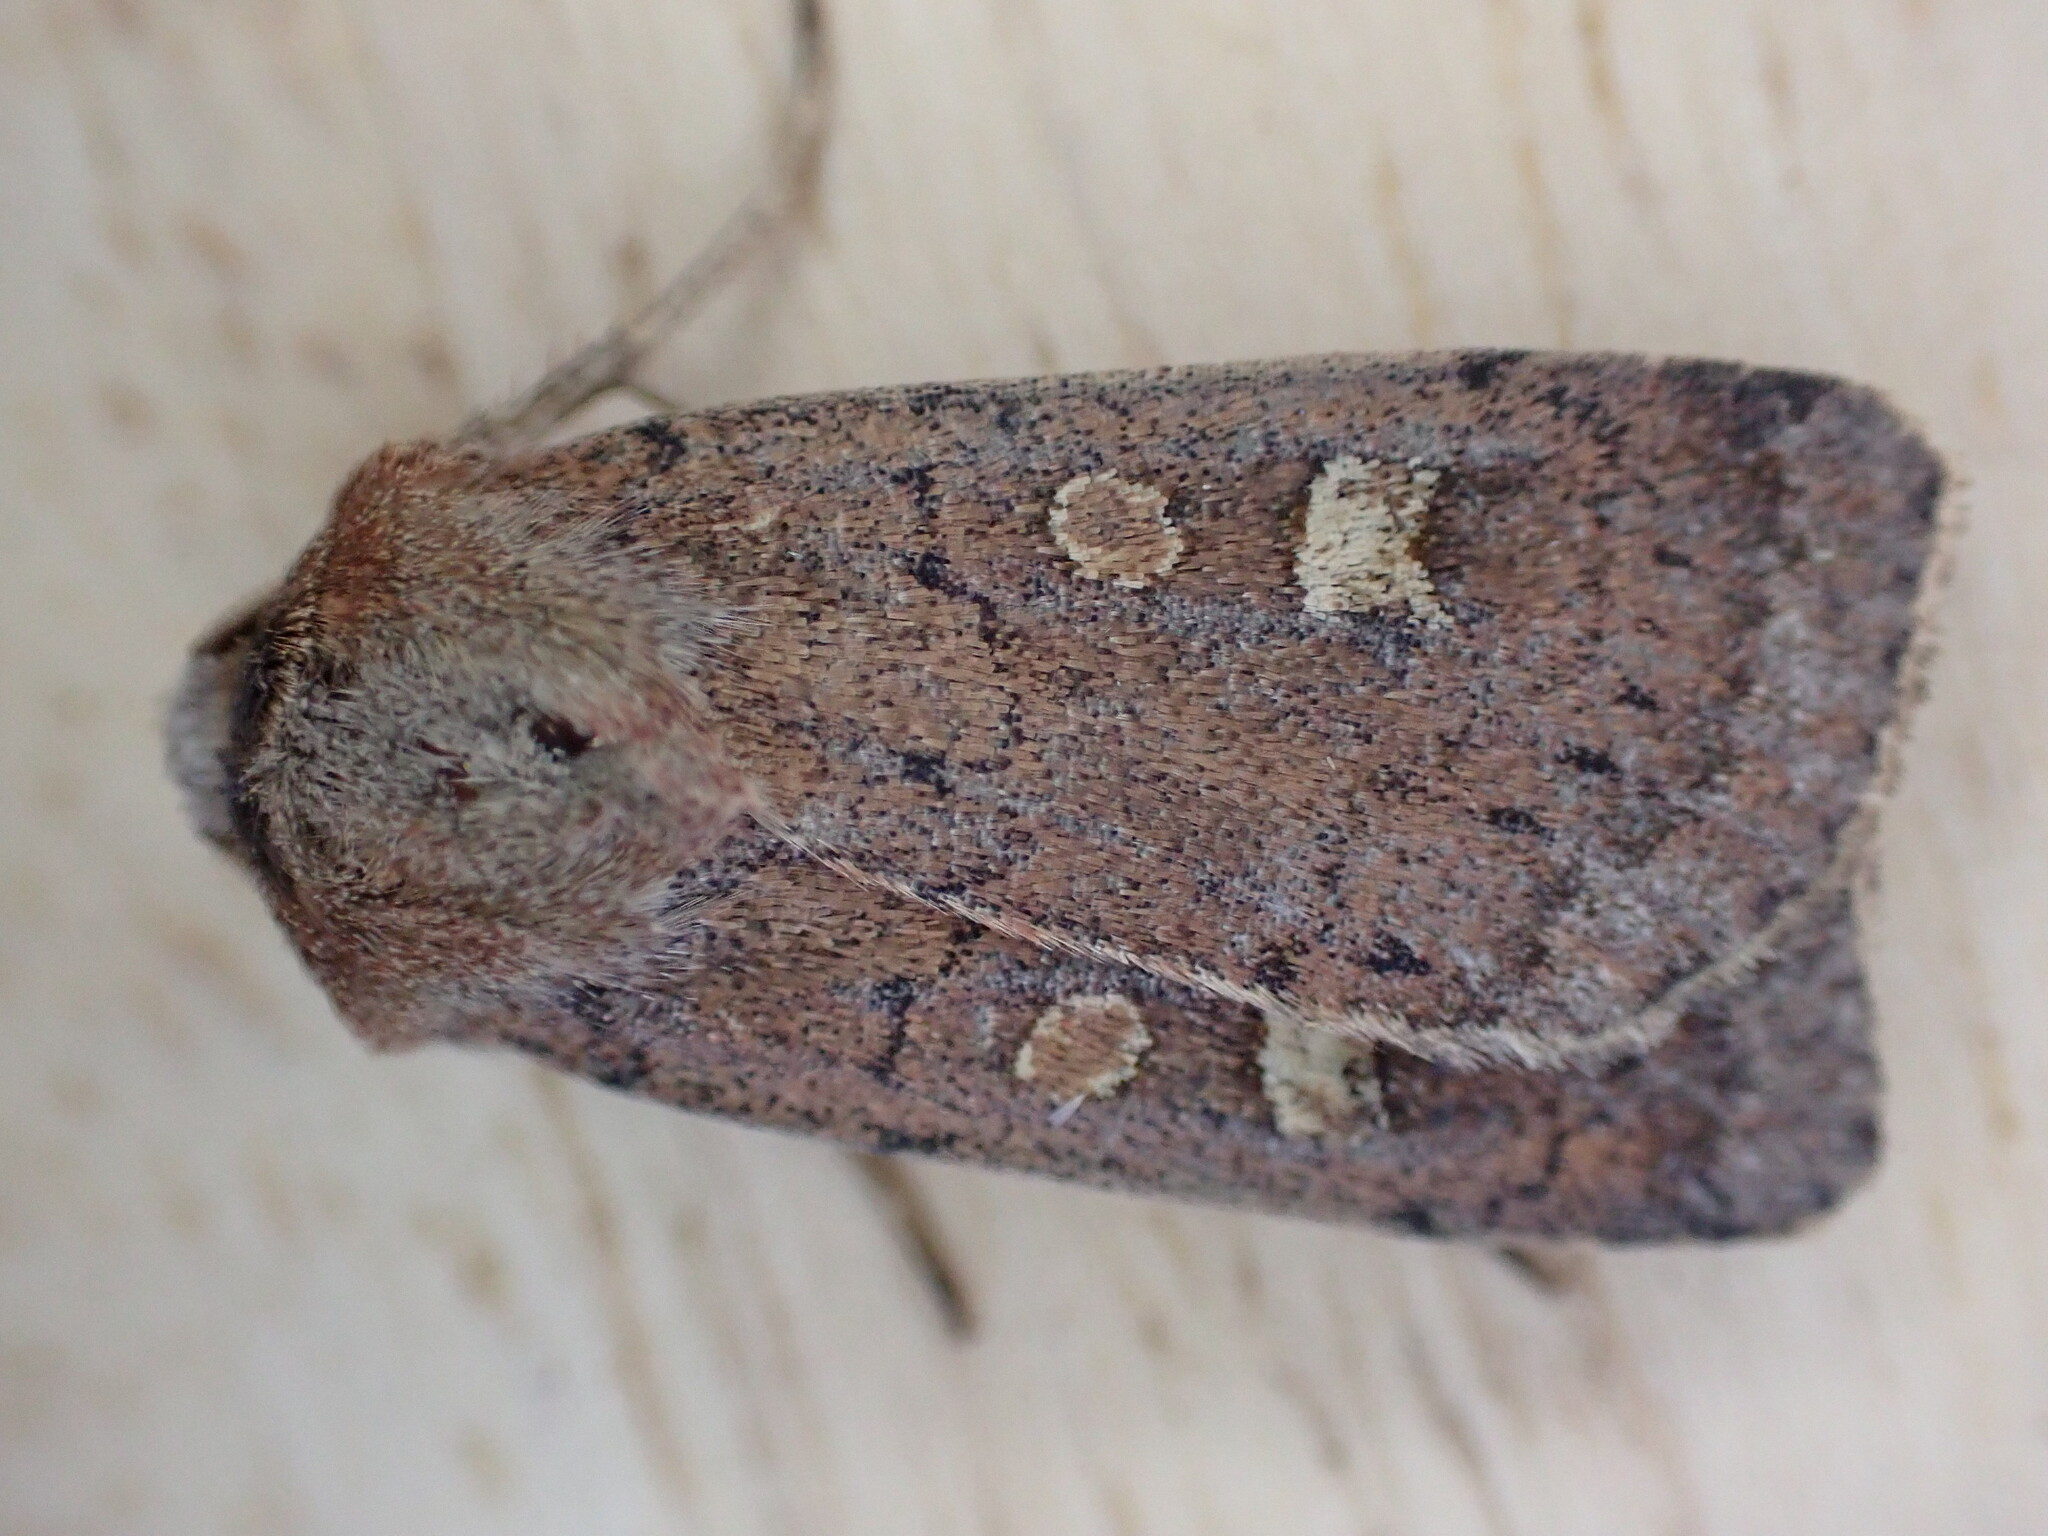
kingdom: Animalia
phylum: Arthropoda
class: Insecta
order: Lepidoptera
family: Noctuidae
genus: Xestia
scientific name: Xestia xanthographa
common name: Square-spot rustic
